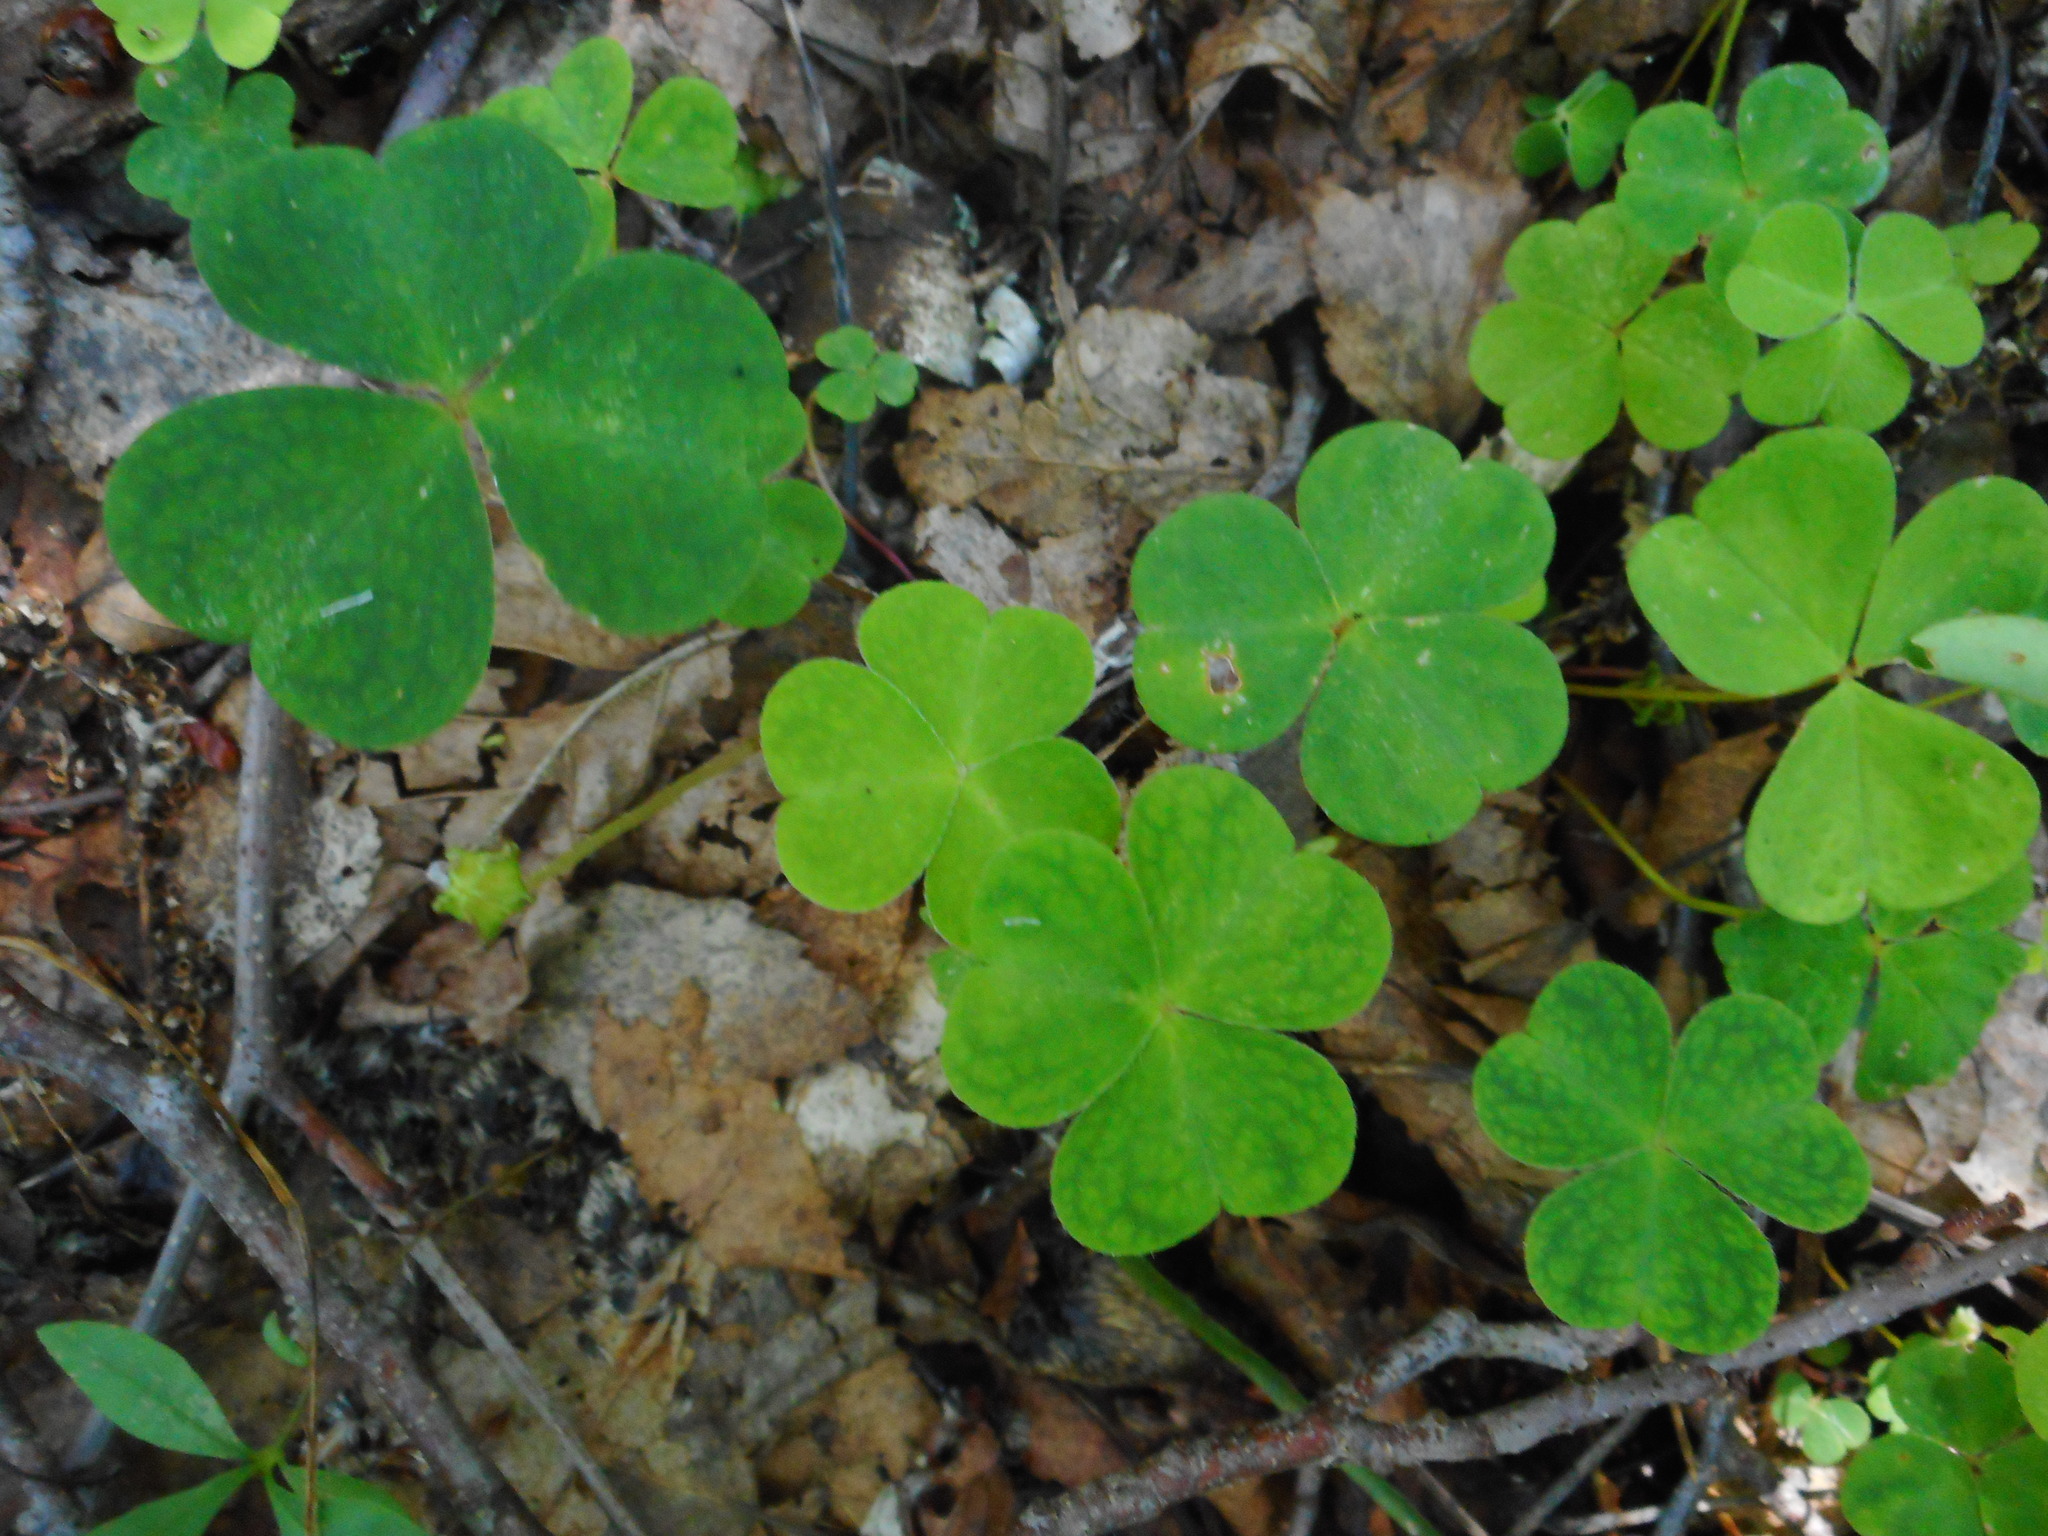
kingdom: Plantae
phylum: Tracheophyta
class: Magnoliopsida
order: Oxalidales
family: Oxalidaceae
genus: Oxalis
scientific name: Oxalis acetosella
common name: Wood-sorrel
